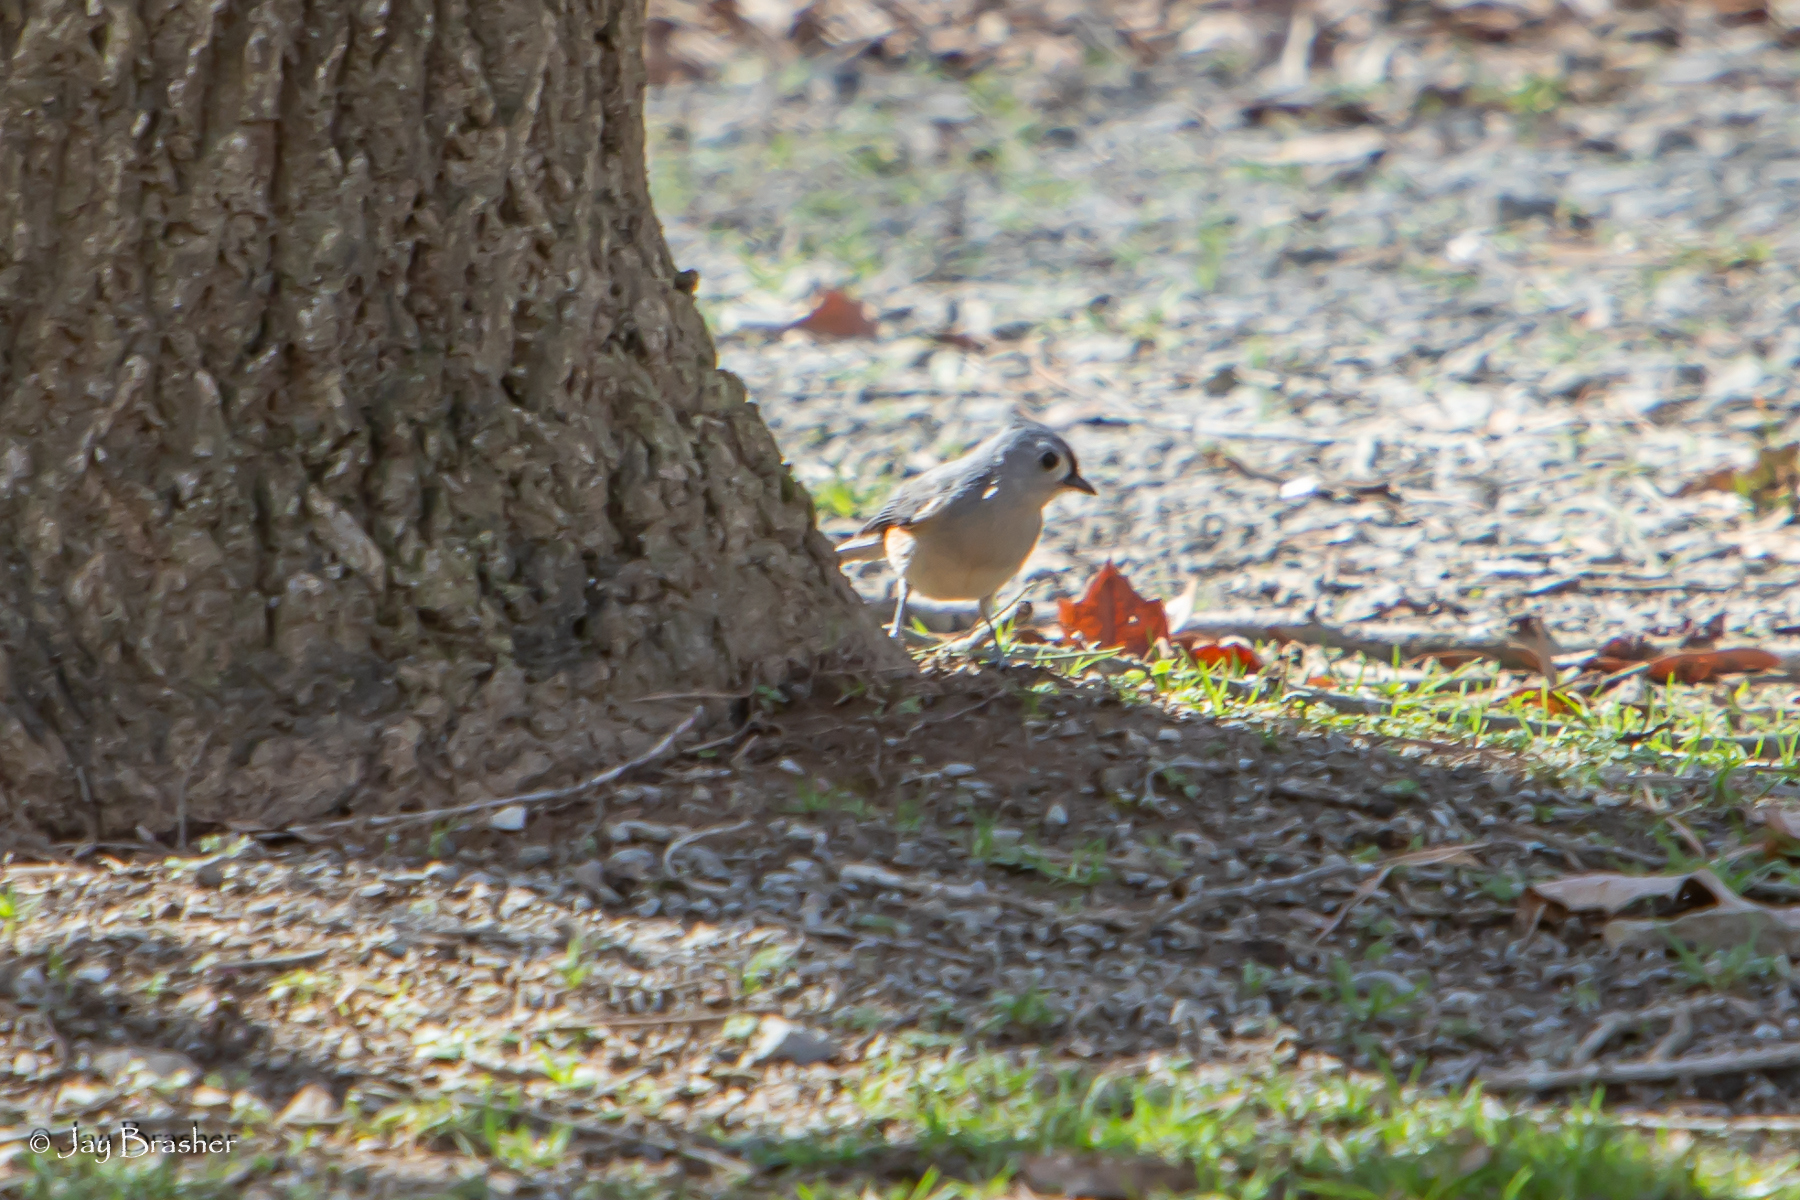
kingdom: Animalia
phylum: Chordata
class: Aves
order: Passeriformes
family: Paridae
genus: Baeolophus
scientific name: Baeolophus bicolor
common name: Tufted titmouse
